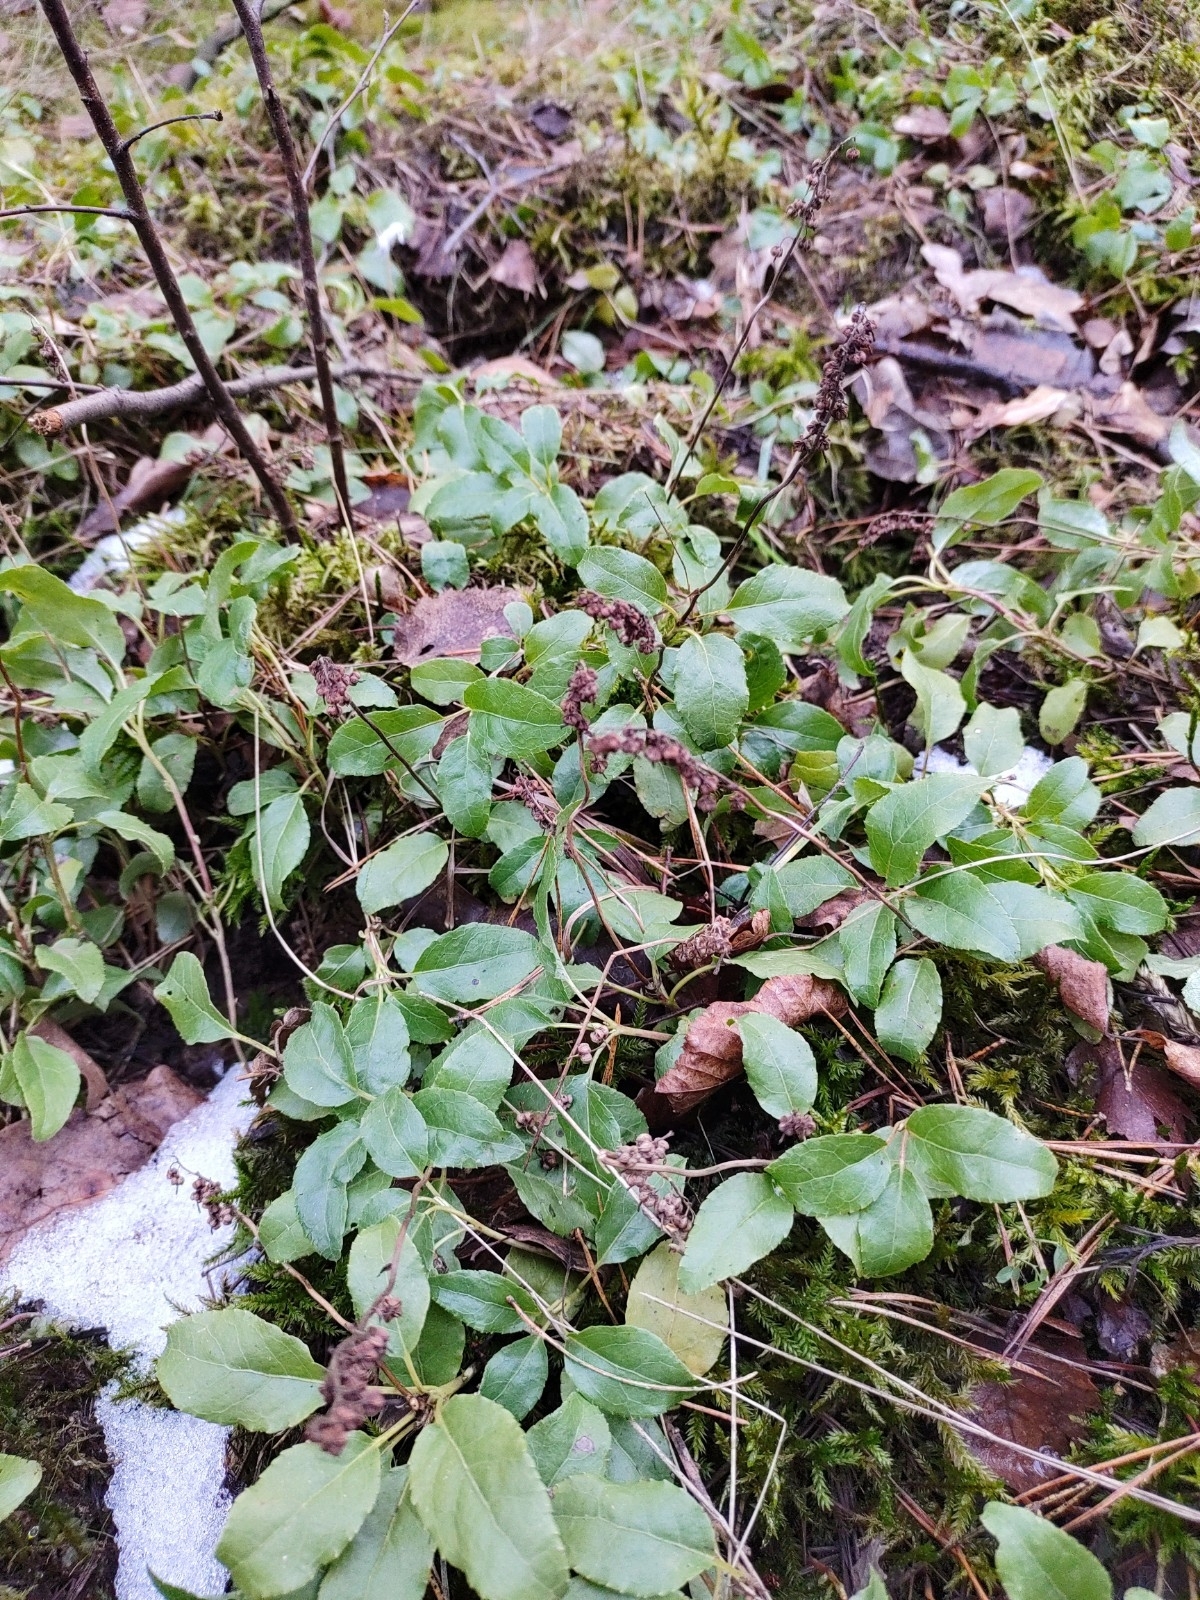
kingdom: Plantae
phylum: Tracheophyta
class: Magnoliopsida
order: Ericales
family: Ericaceae
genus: Orthilia
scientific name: Orthilia secunda
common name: One-sided orthilia
